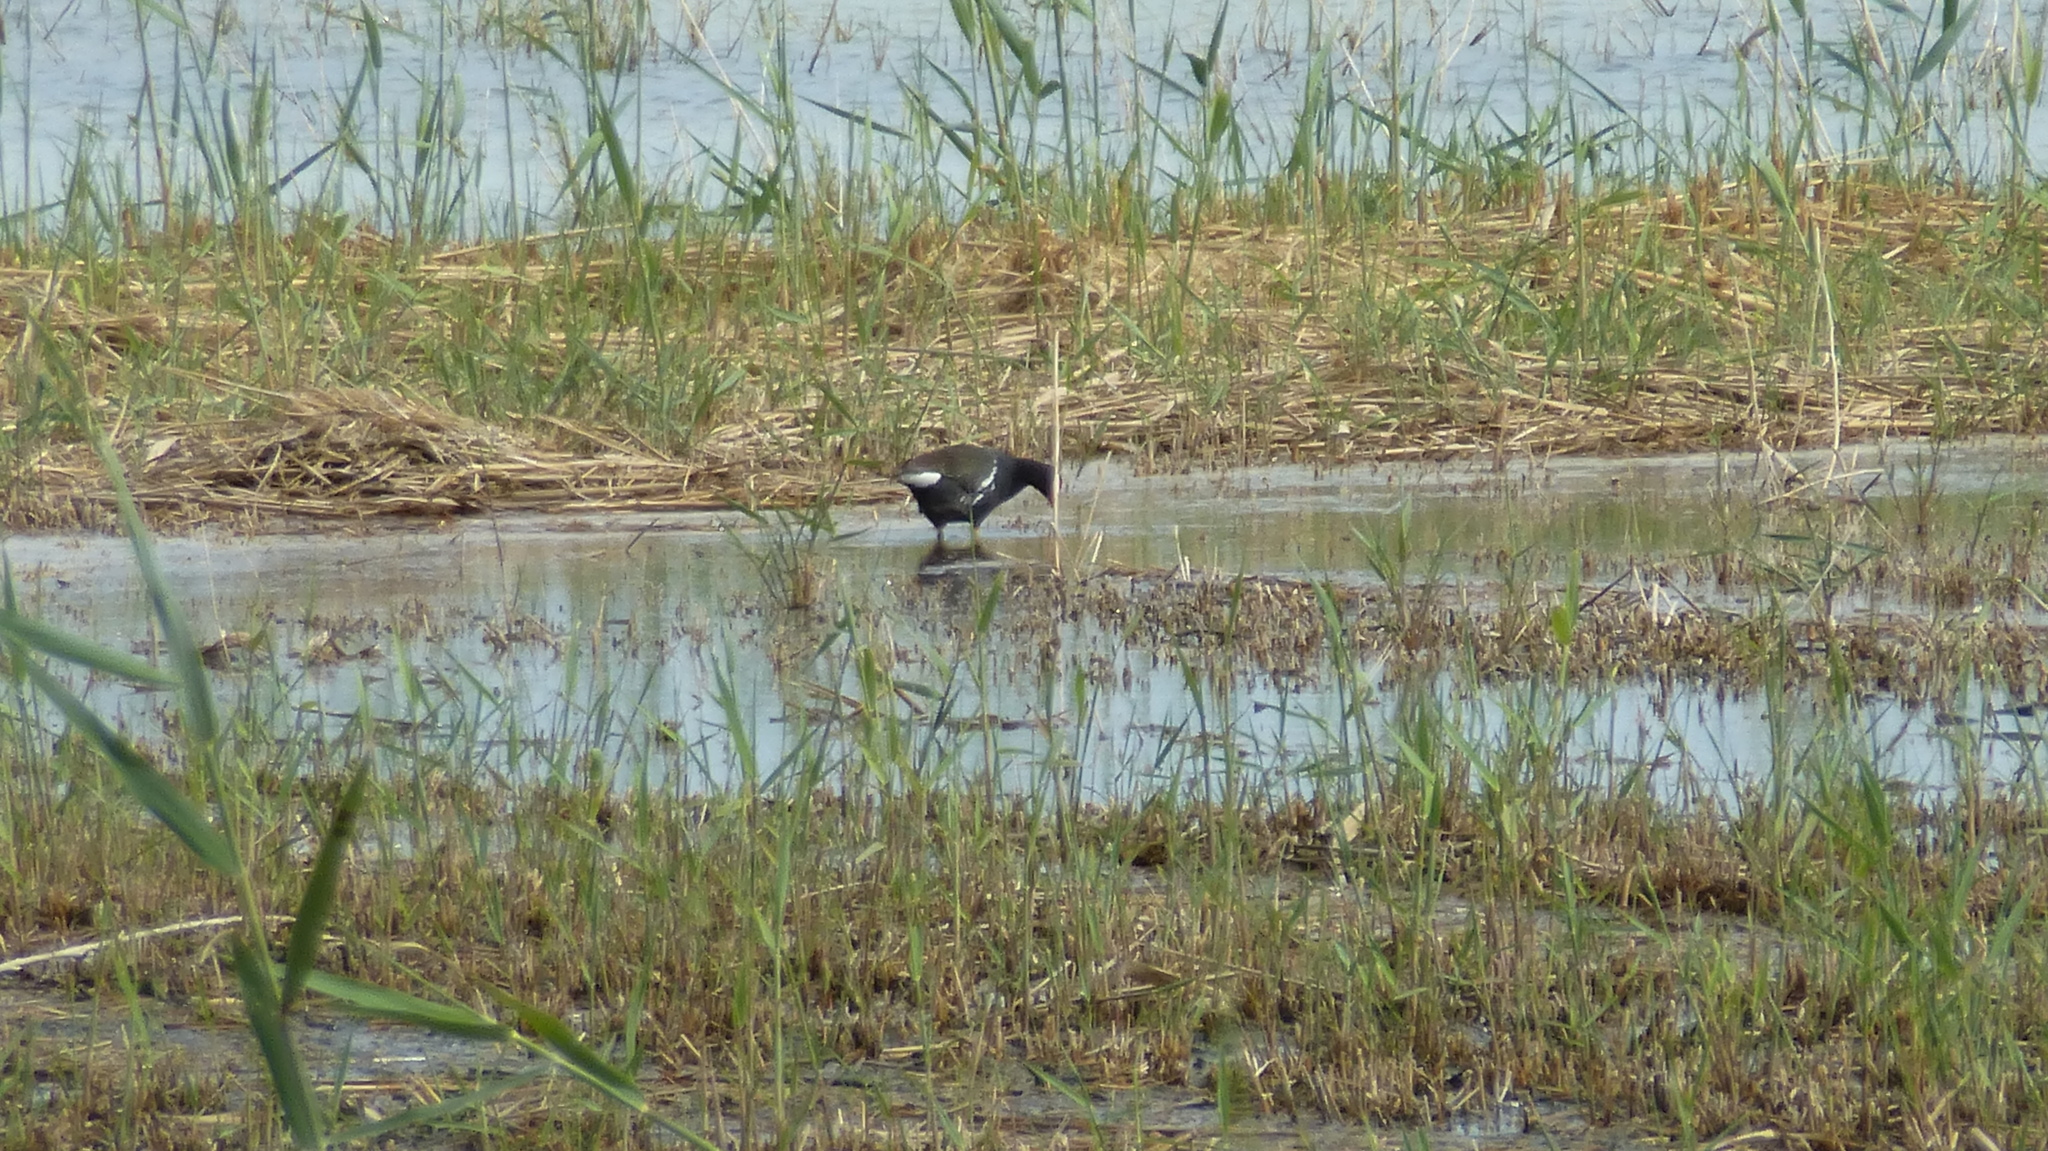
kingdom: Animalia
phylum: Chordata
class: Aves
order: Gruiformes
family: Rallidae
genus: Gallinula
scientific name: Gallinula chloropus
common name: Common moorhen
